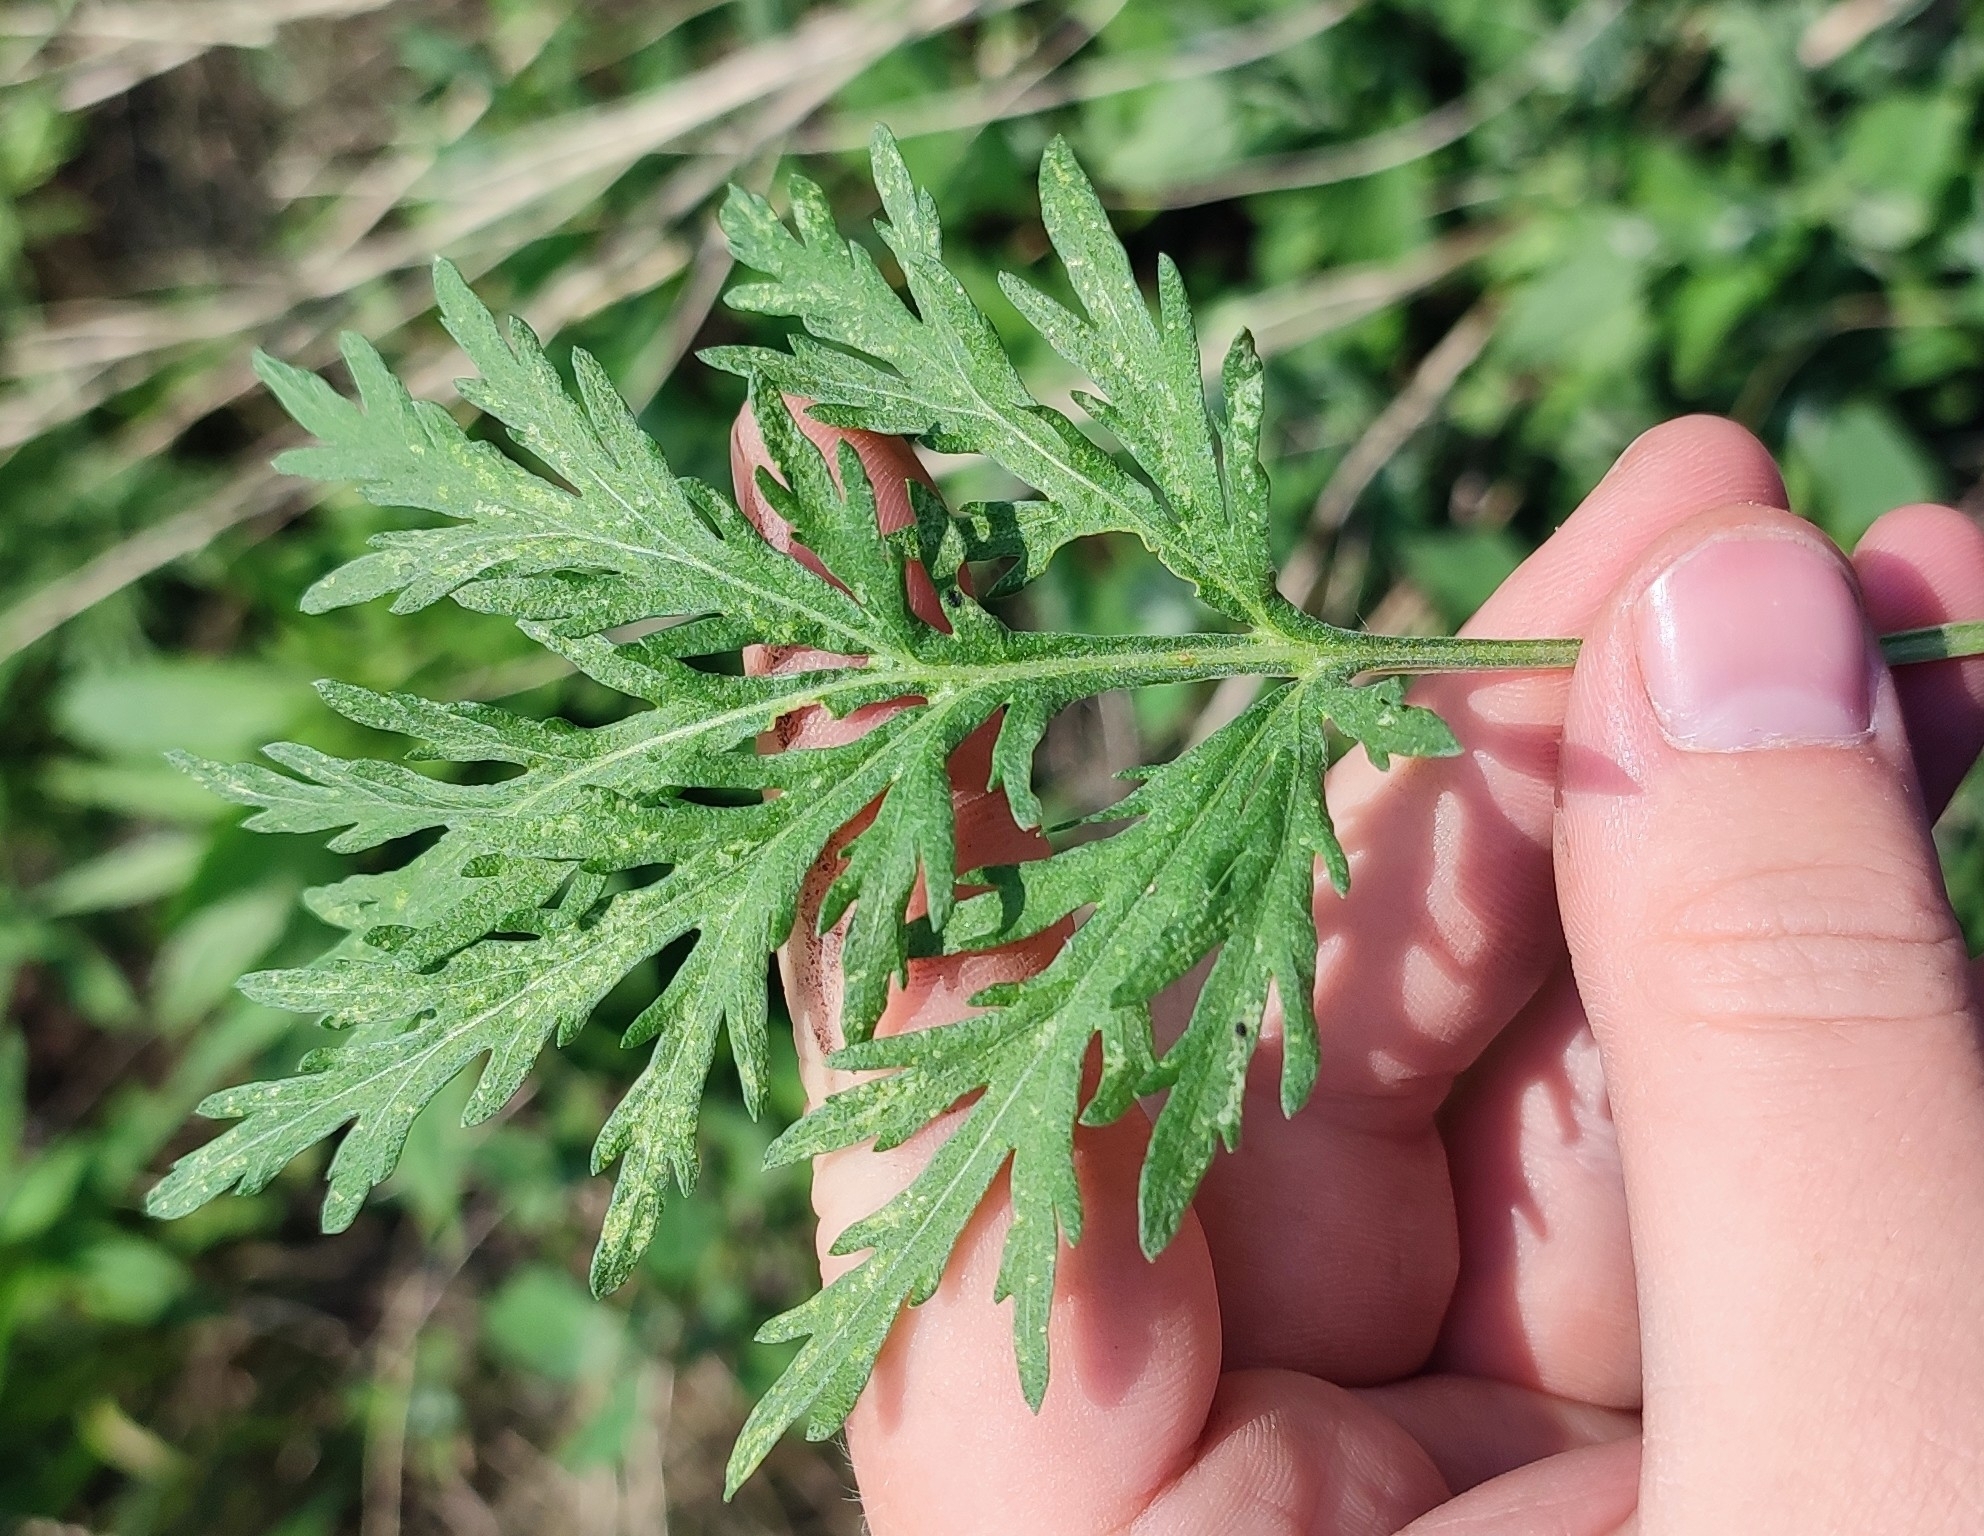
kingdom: Plantae
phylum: Tracheophyta
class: Magnoliopsida
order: Asterales
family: Asteraceae
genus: Artemisia
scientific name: Artemisia sieversiana
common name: Sieversian wormwood
